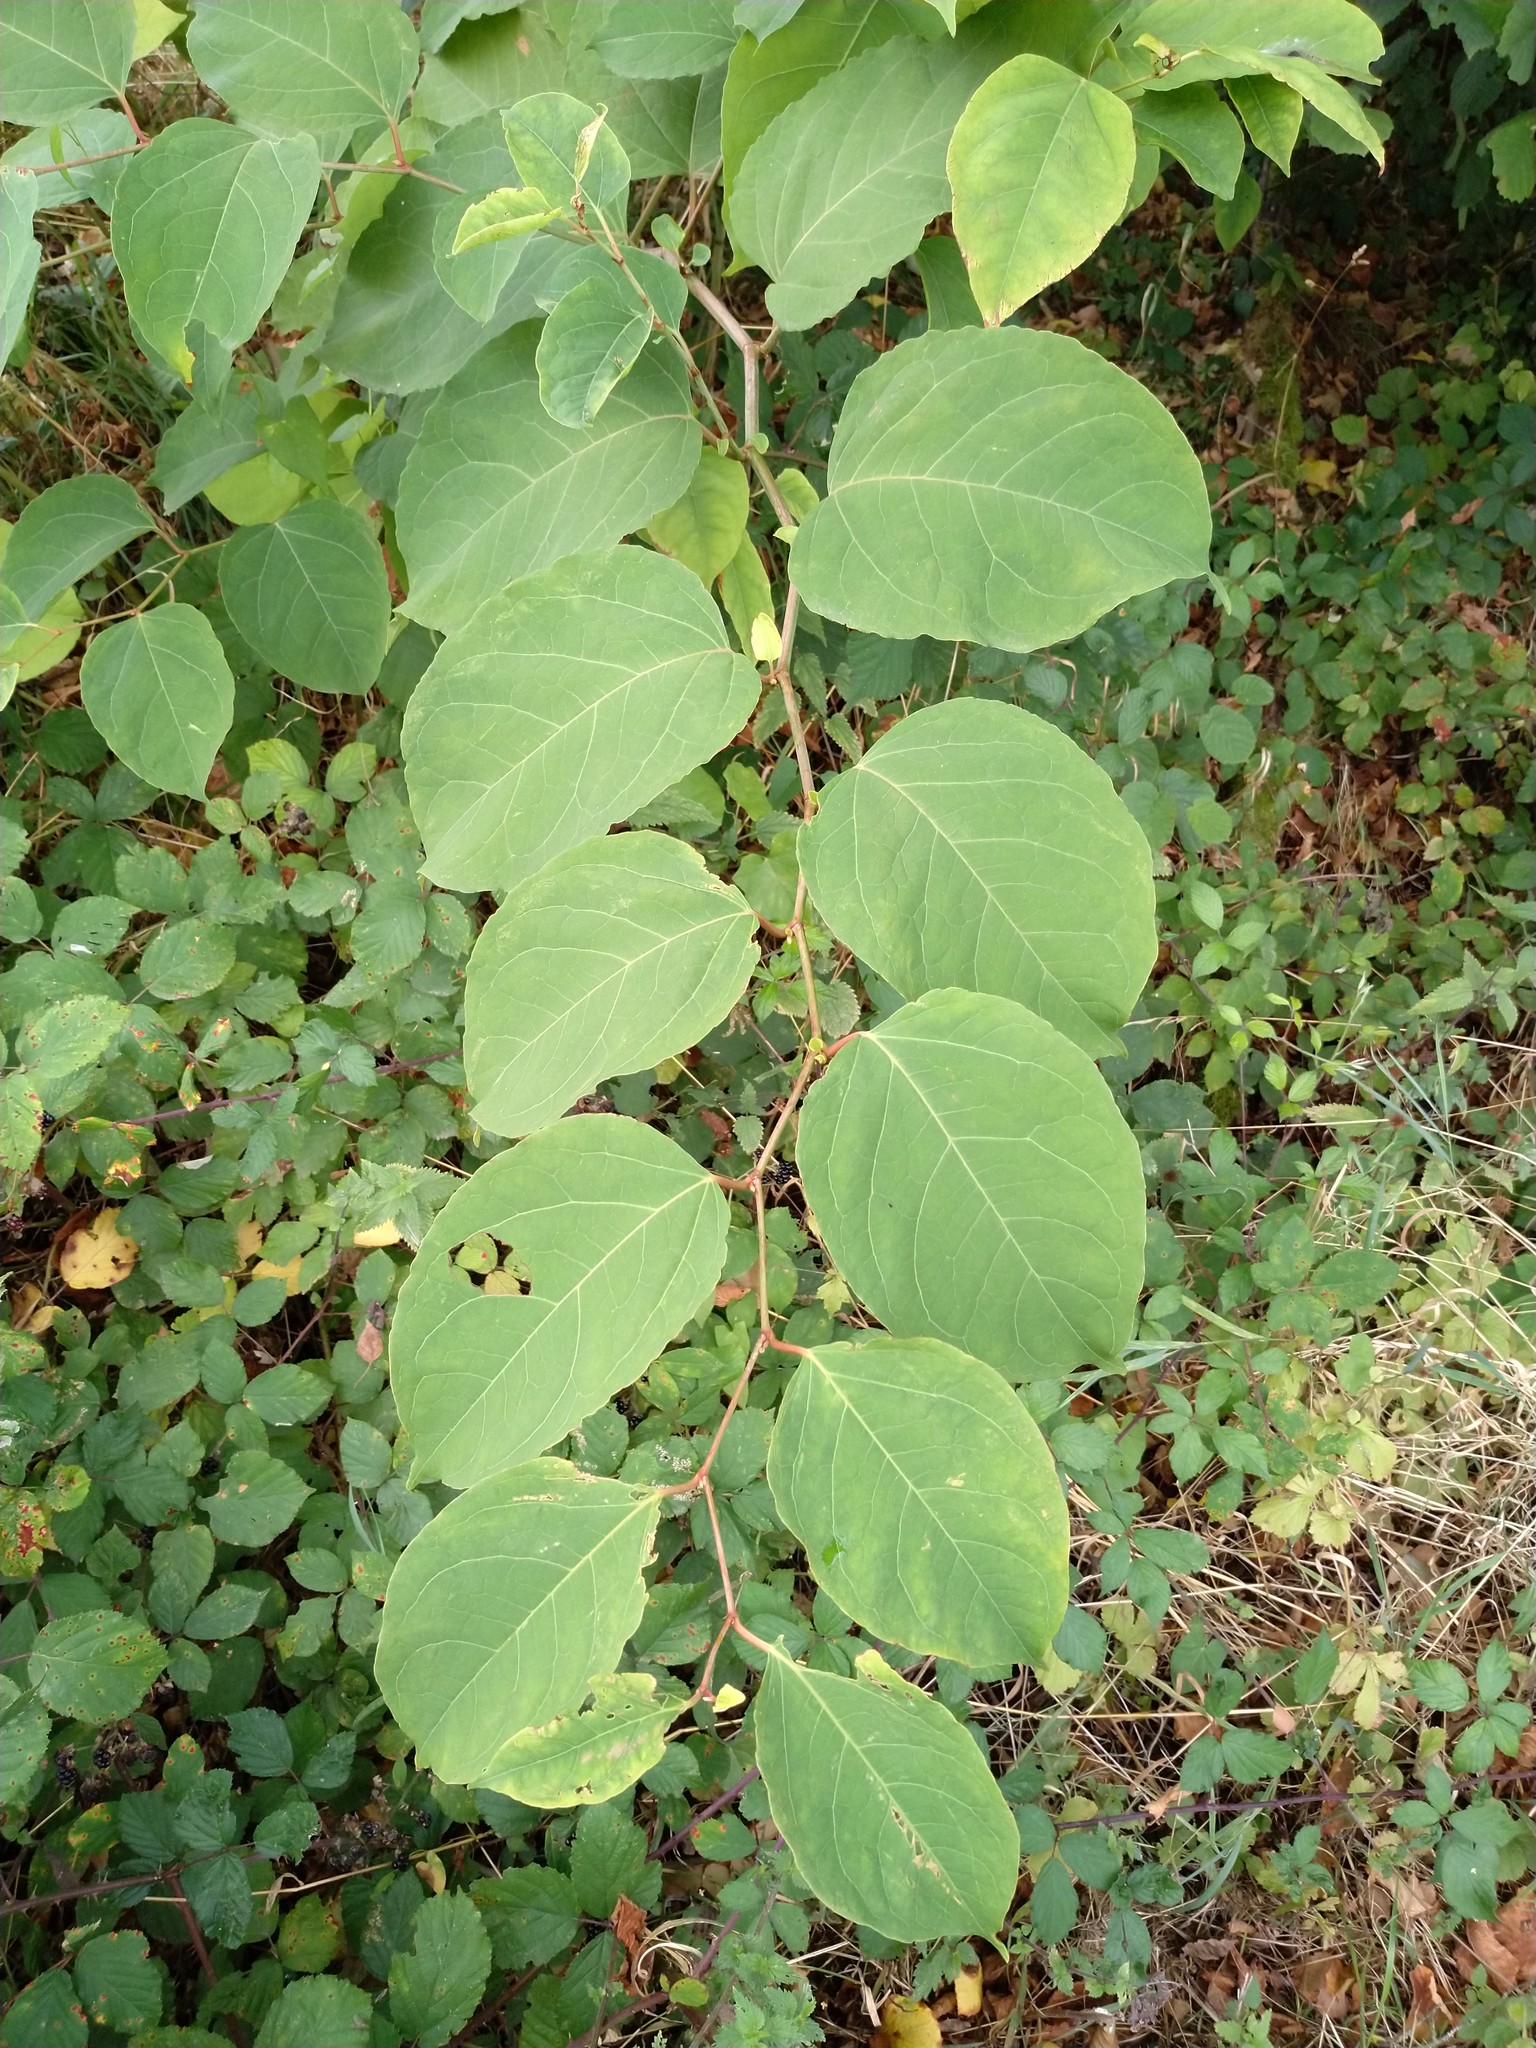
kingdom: Plantae
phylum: Tracheophyta
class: Magnoliopsida
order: Caryophyllales
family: Polygonaceae
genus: Reynoutria
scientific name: Reynoutria japonica
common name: Japanese knotweed
